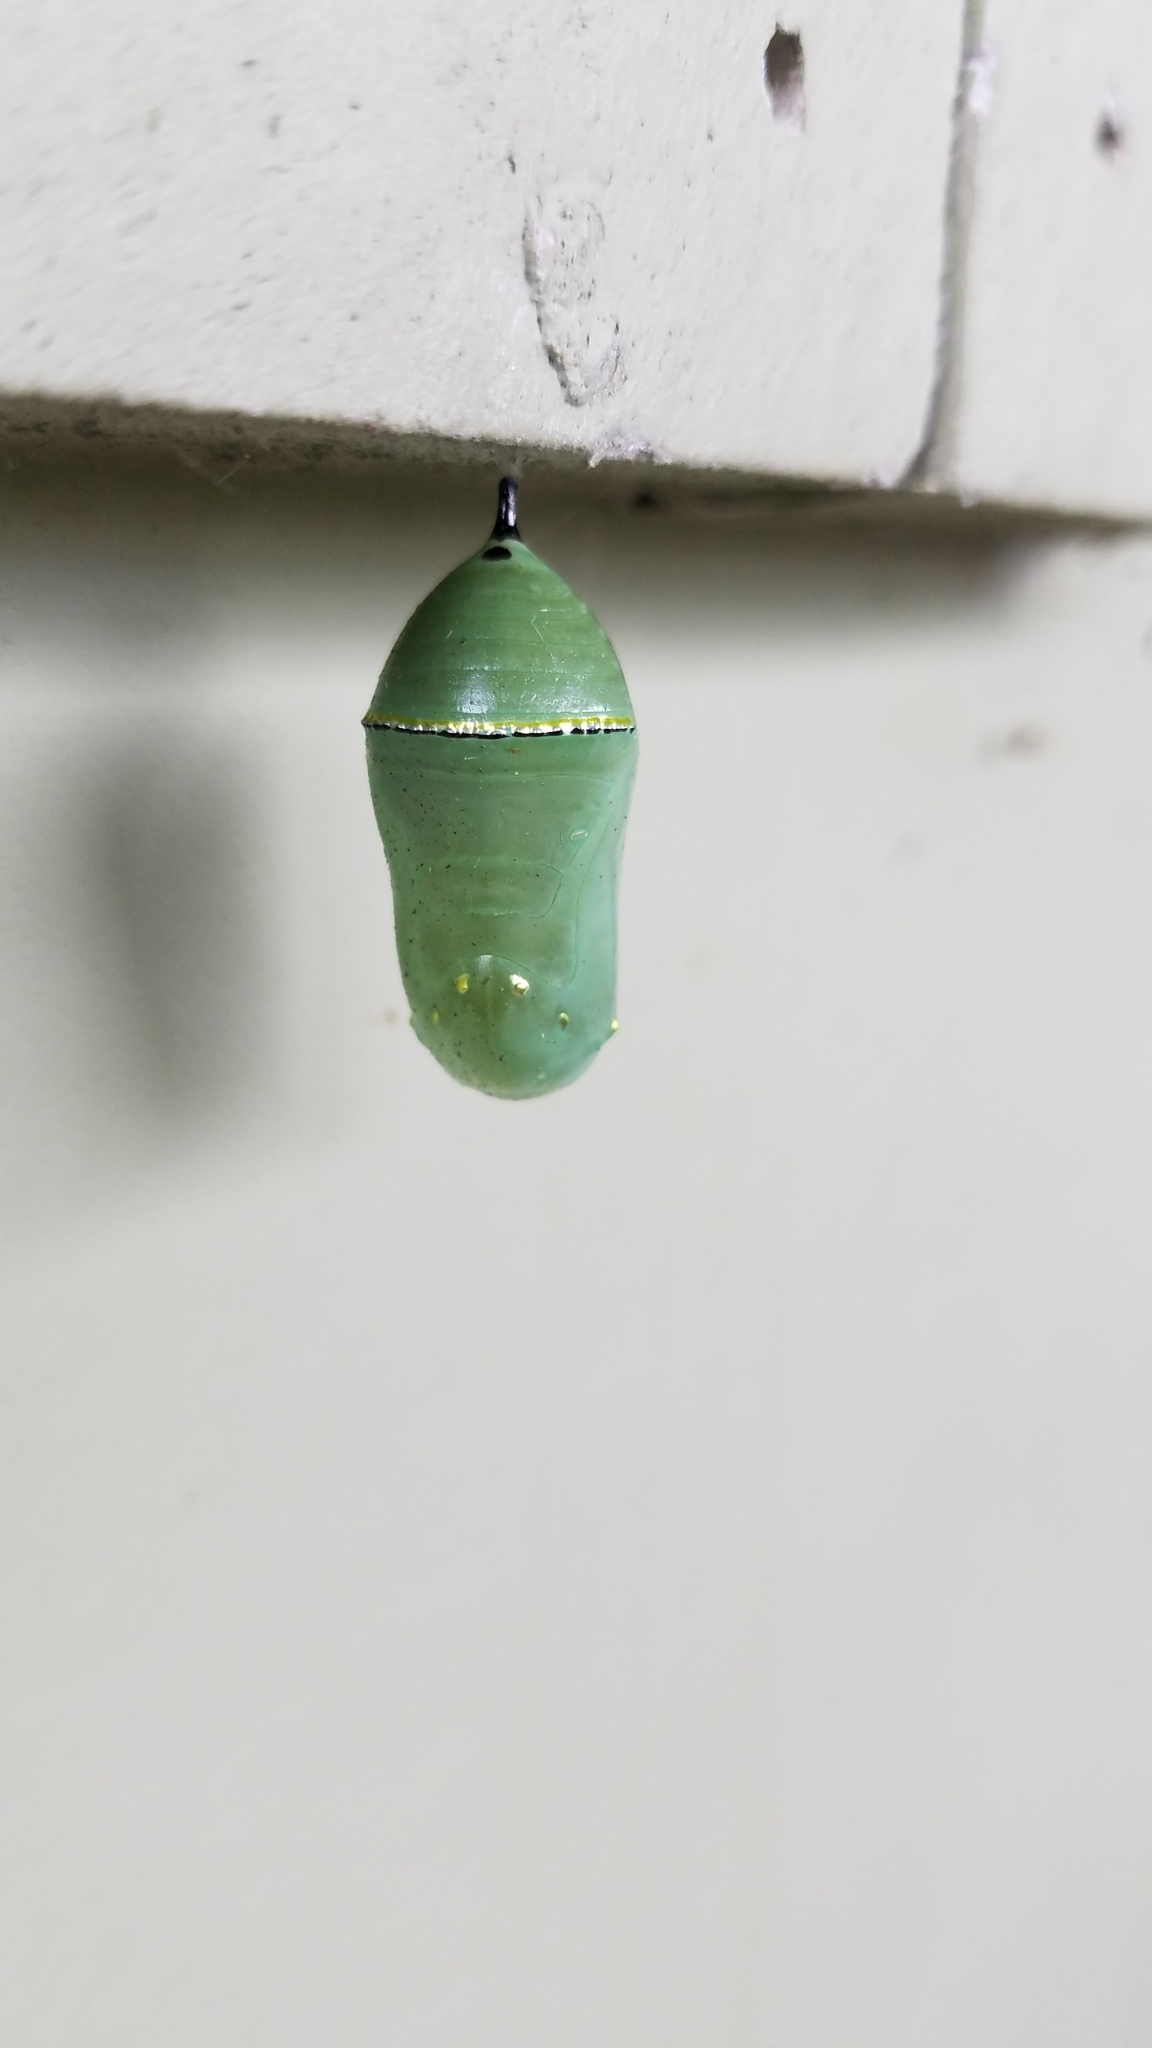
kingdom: Animalia
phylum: Arthropoda
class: Insecta
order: Lepidoptera
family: Nymphalidae
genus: Danaus
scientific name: Danaus plexippus
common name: Monarch
